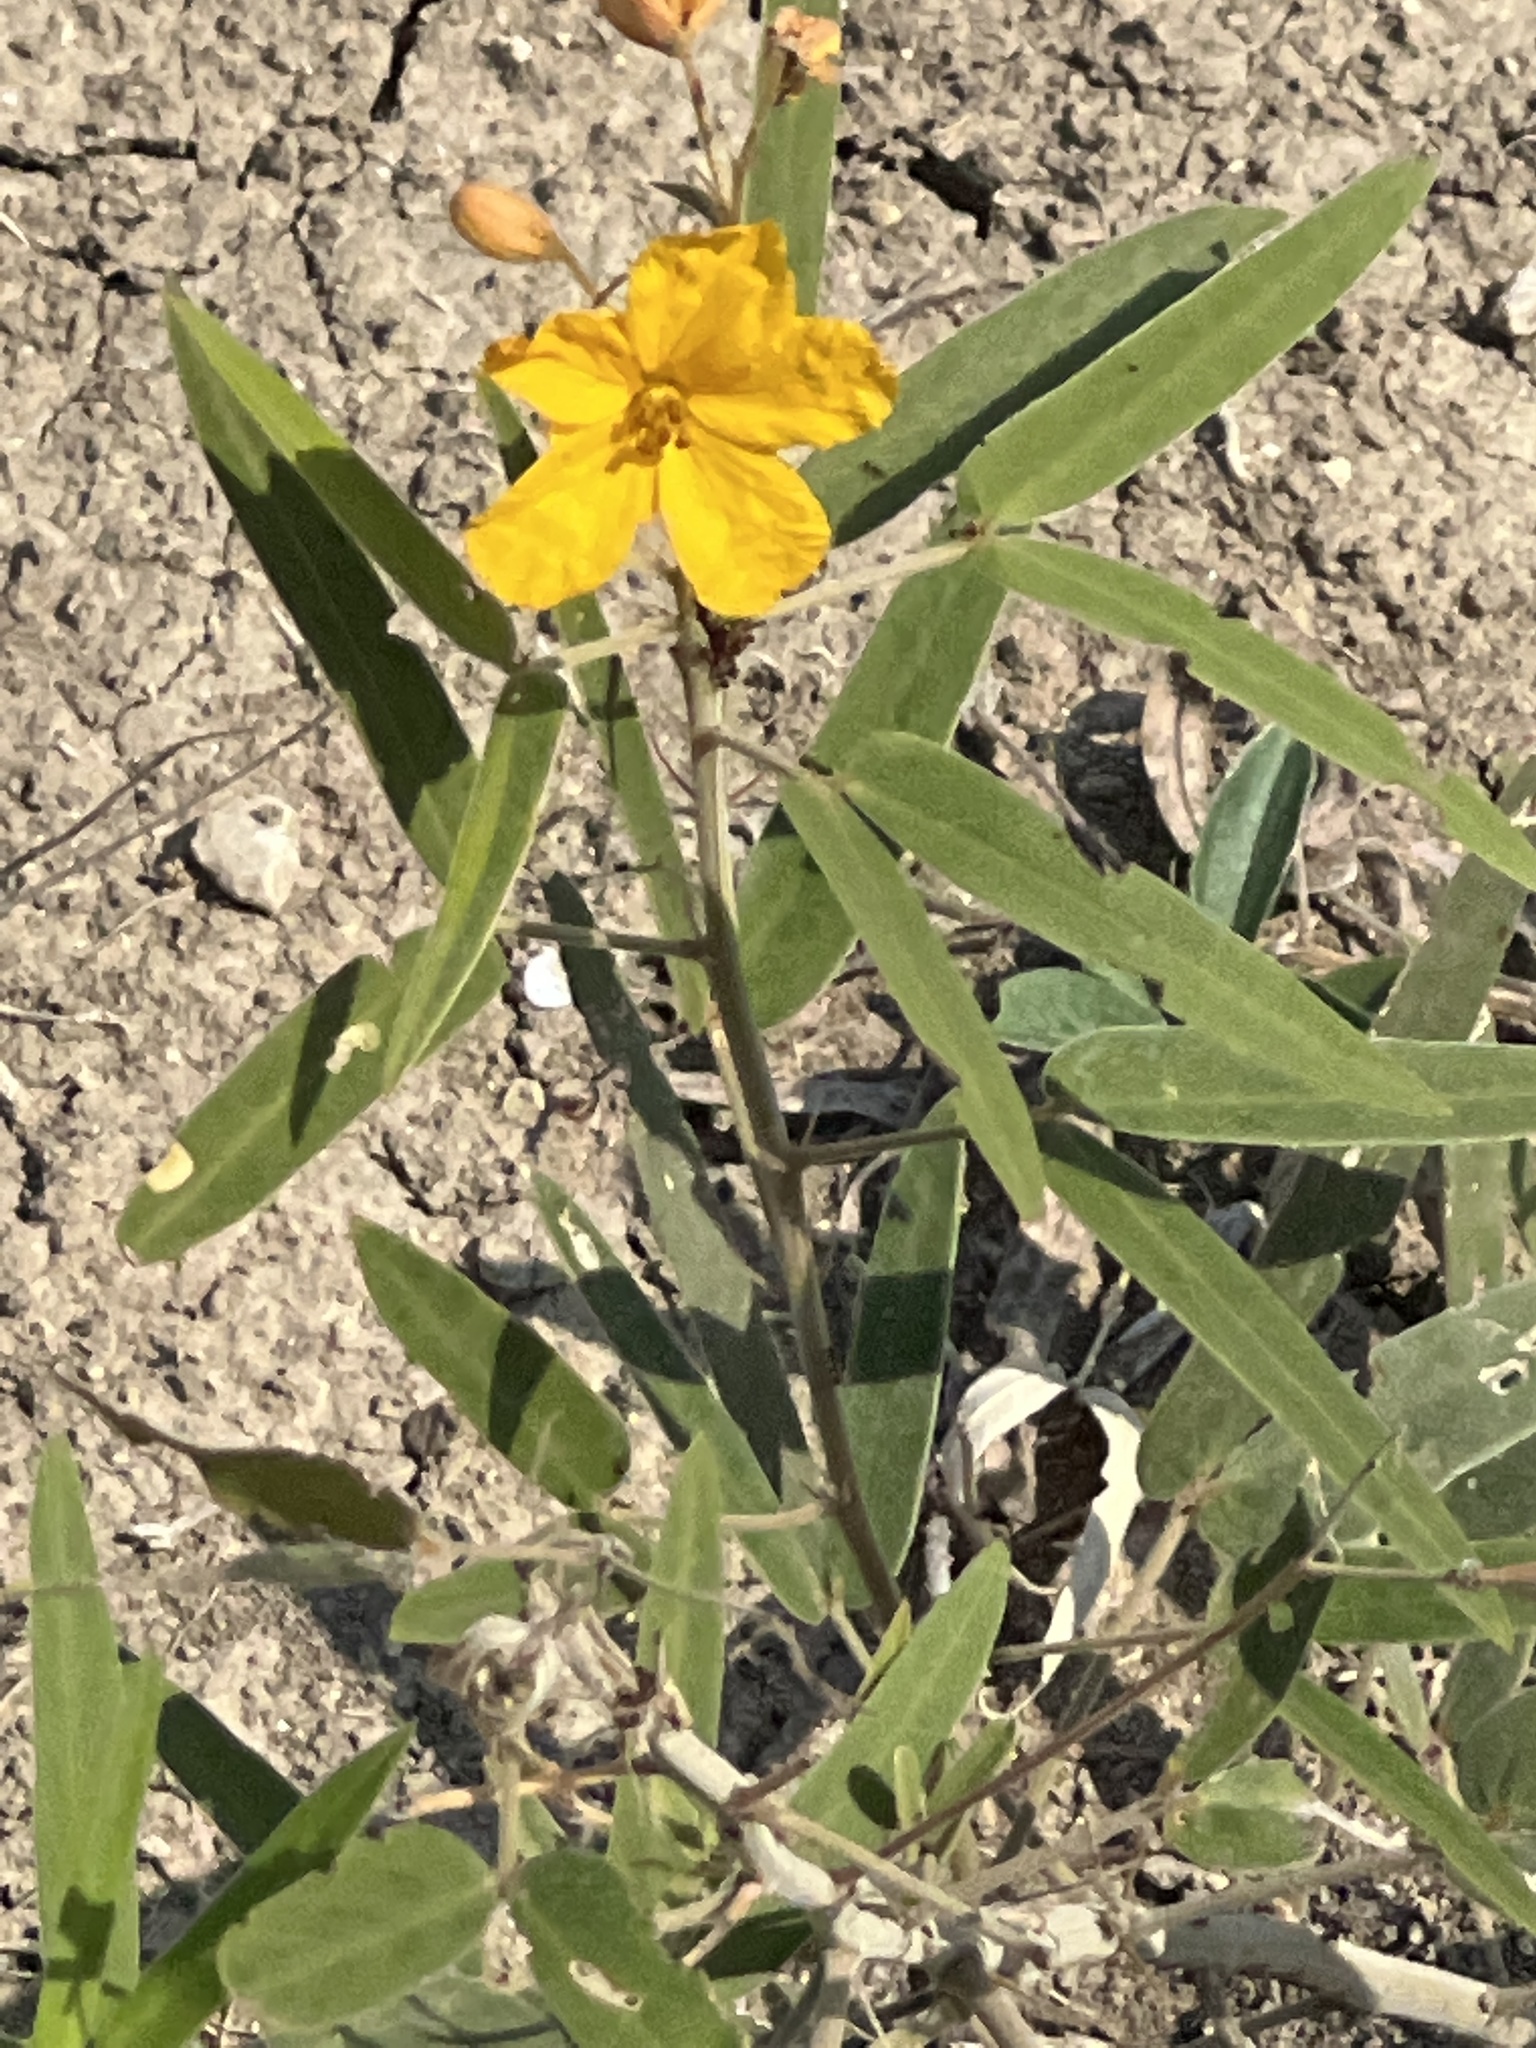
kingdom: Plantae
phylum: Tracheophyta
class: Magnoliopsida
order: Fabales
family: Fabaceae
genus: Senna
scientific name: Senna roemeriana
